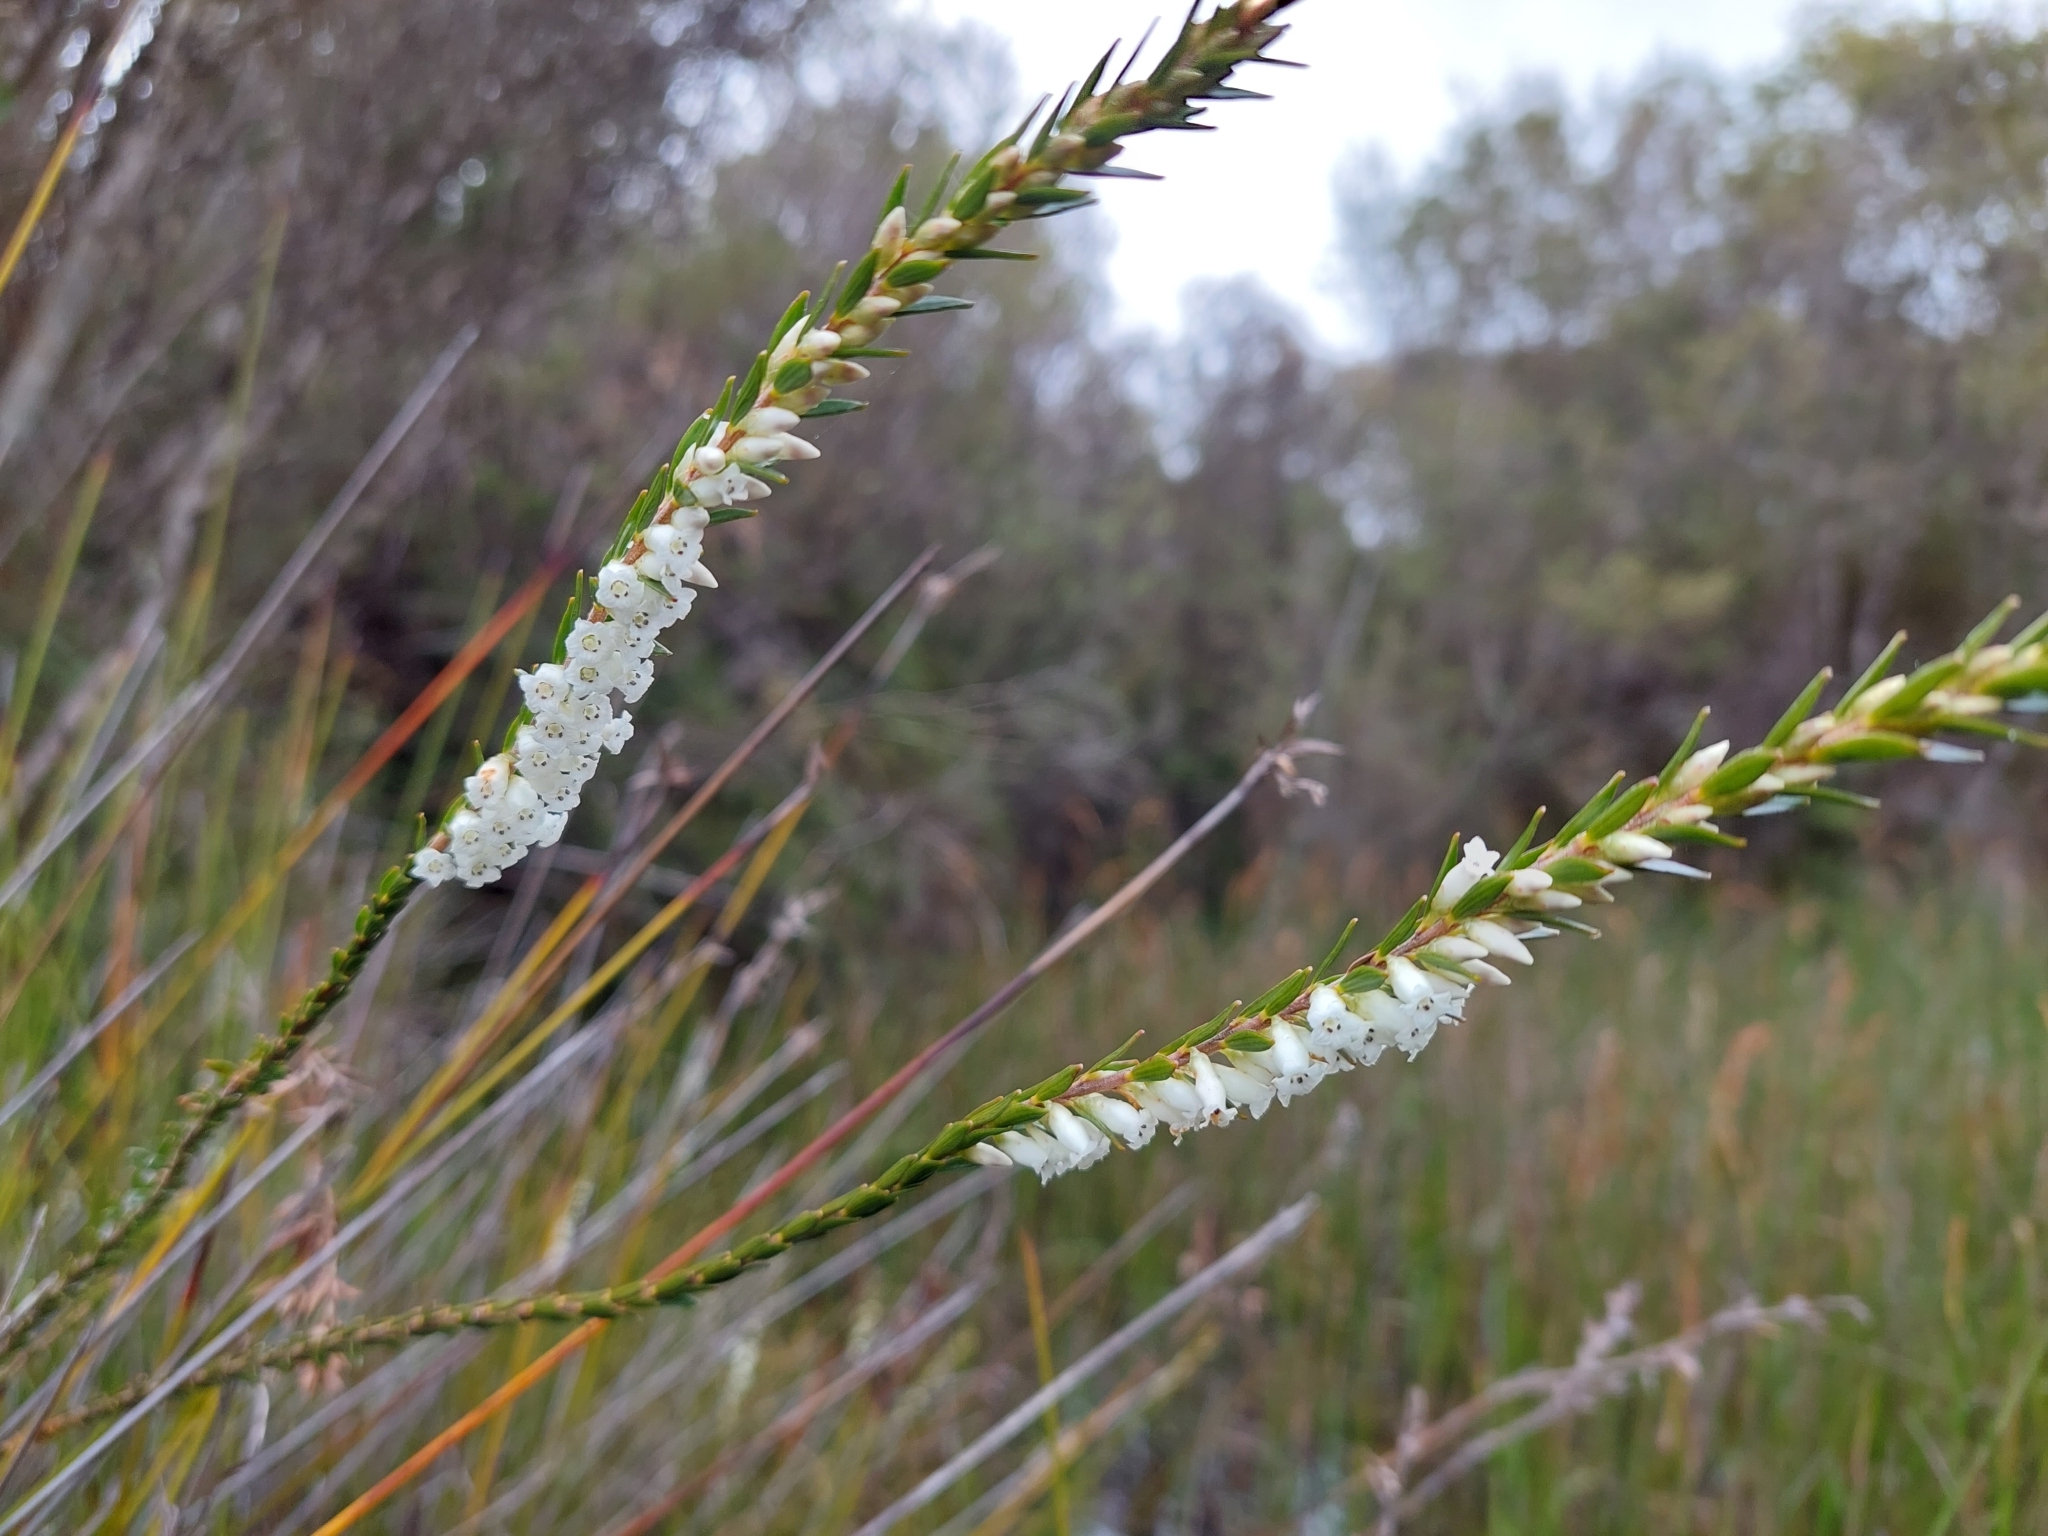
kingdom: Plantae
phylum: Tracheophyta
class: Magnoliopsida
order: Ericales
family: Ericaceae
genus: Epacris
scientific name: Epacris obtusifolia
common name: Blunt-leaf australian-heath
